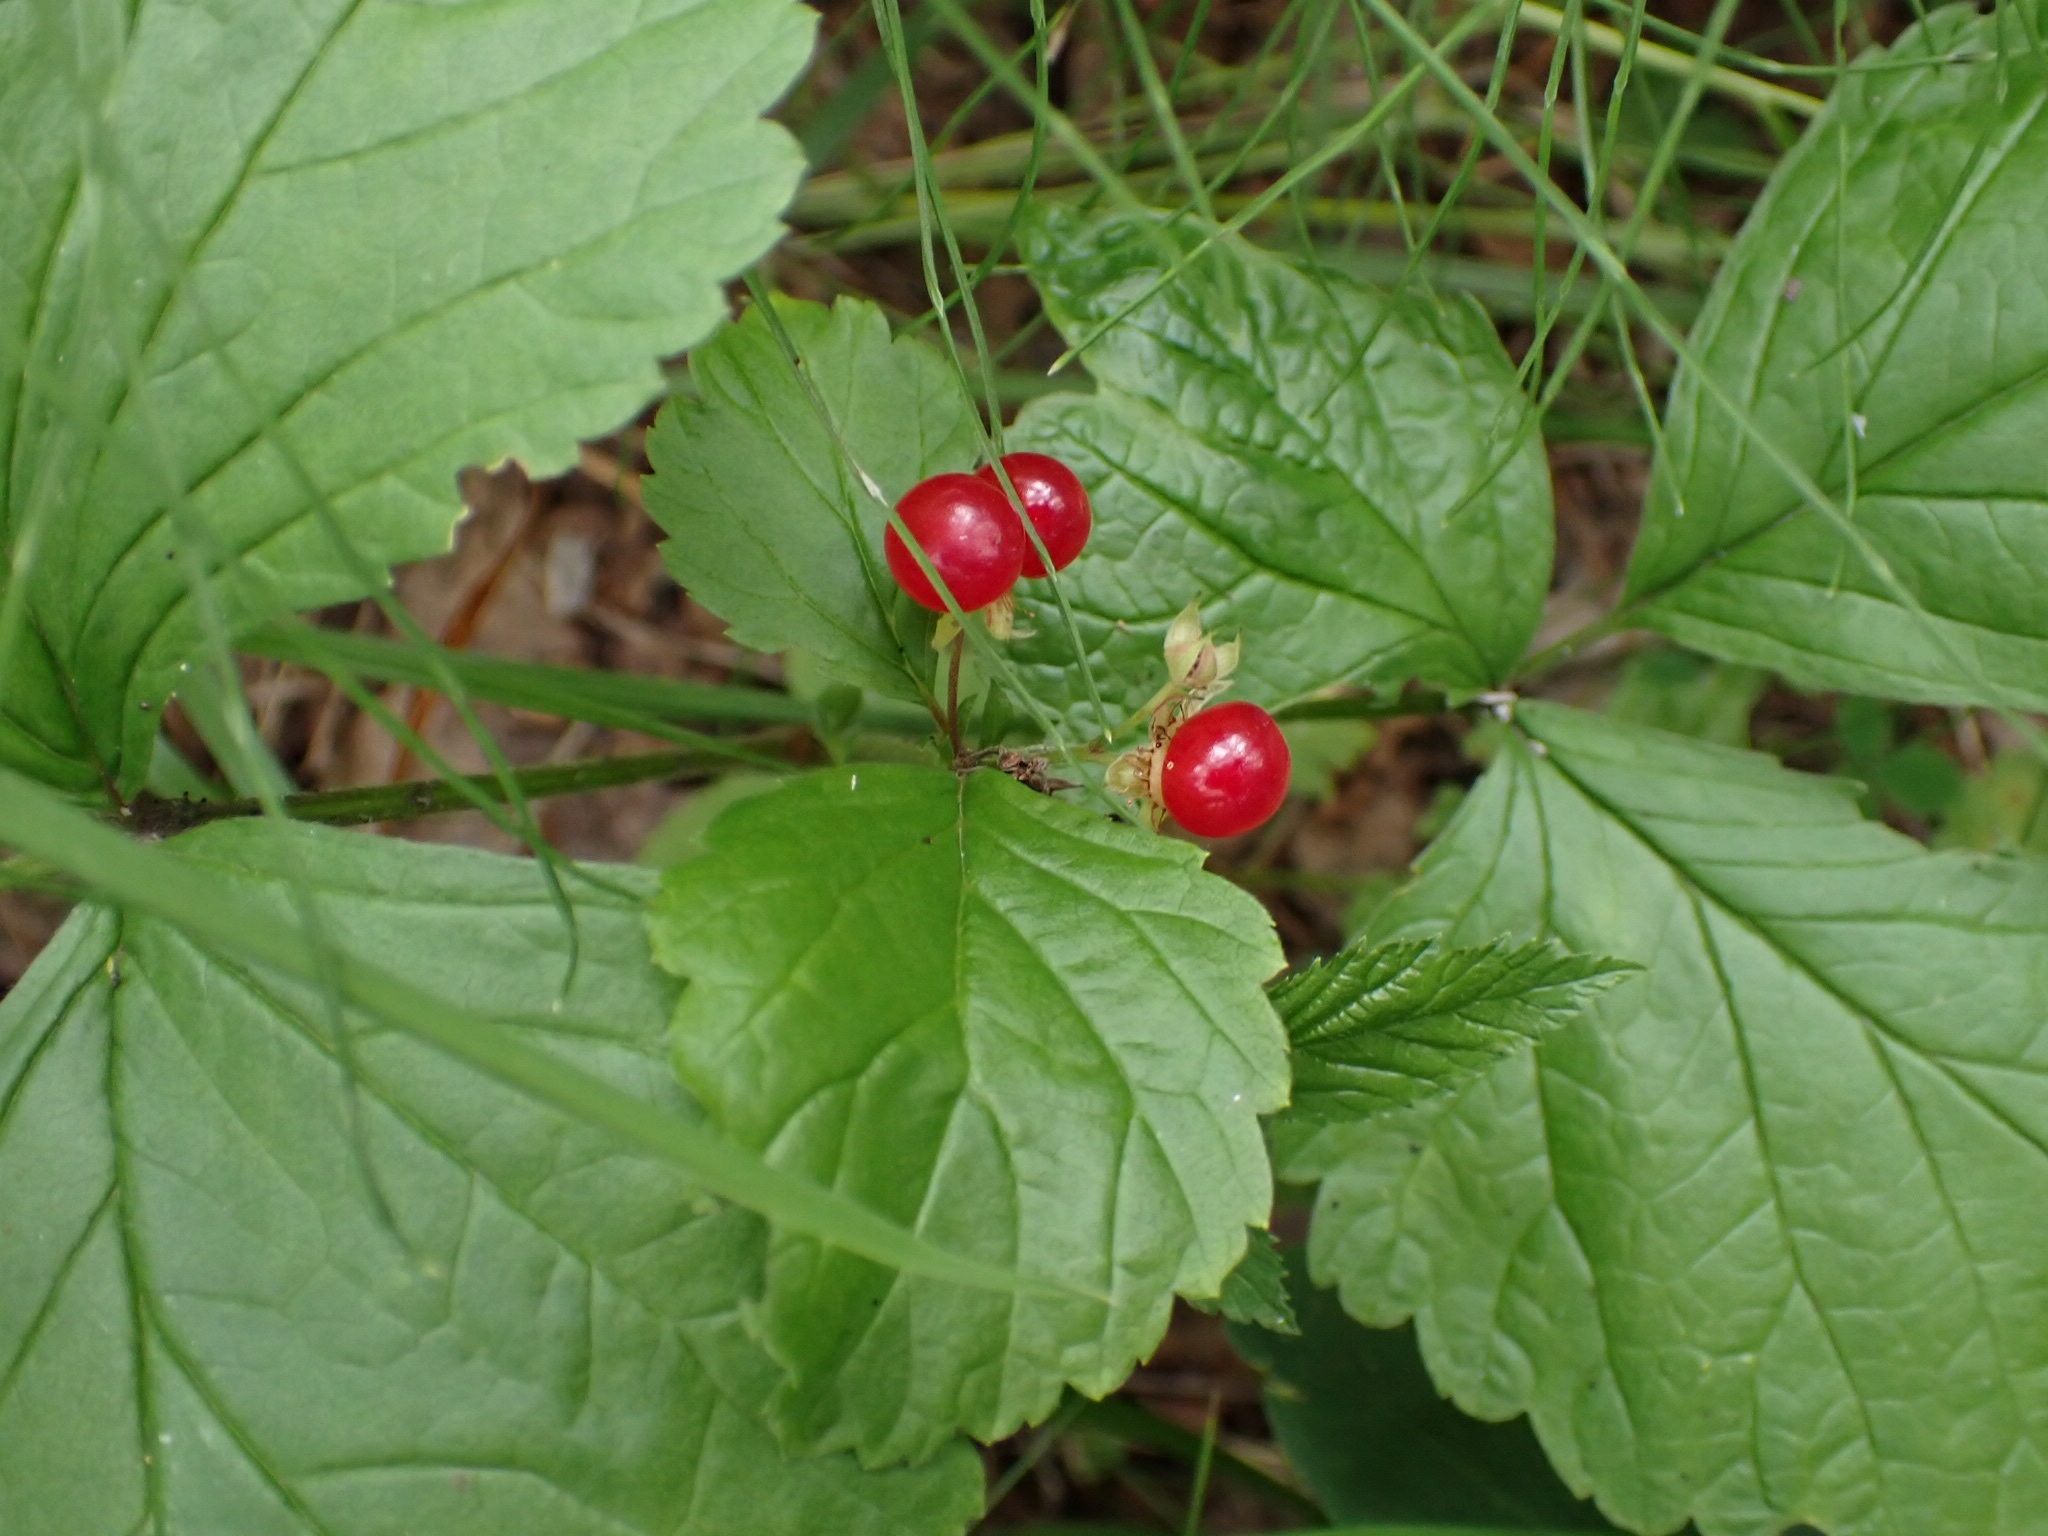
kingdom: Plantae
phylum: Tracheophyta
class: Magnoliopsida
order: Rosales
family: Rosaceae
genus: Rubus
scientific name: Rubus saxatilis
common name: Stone bramble
